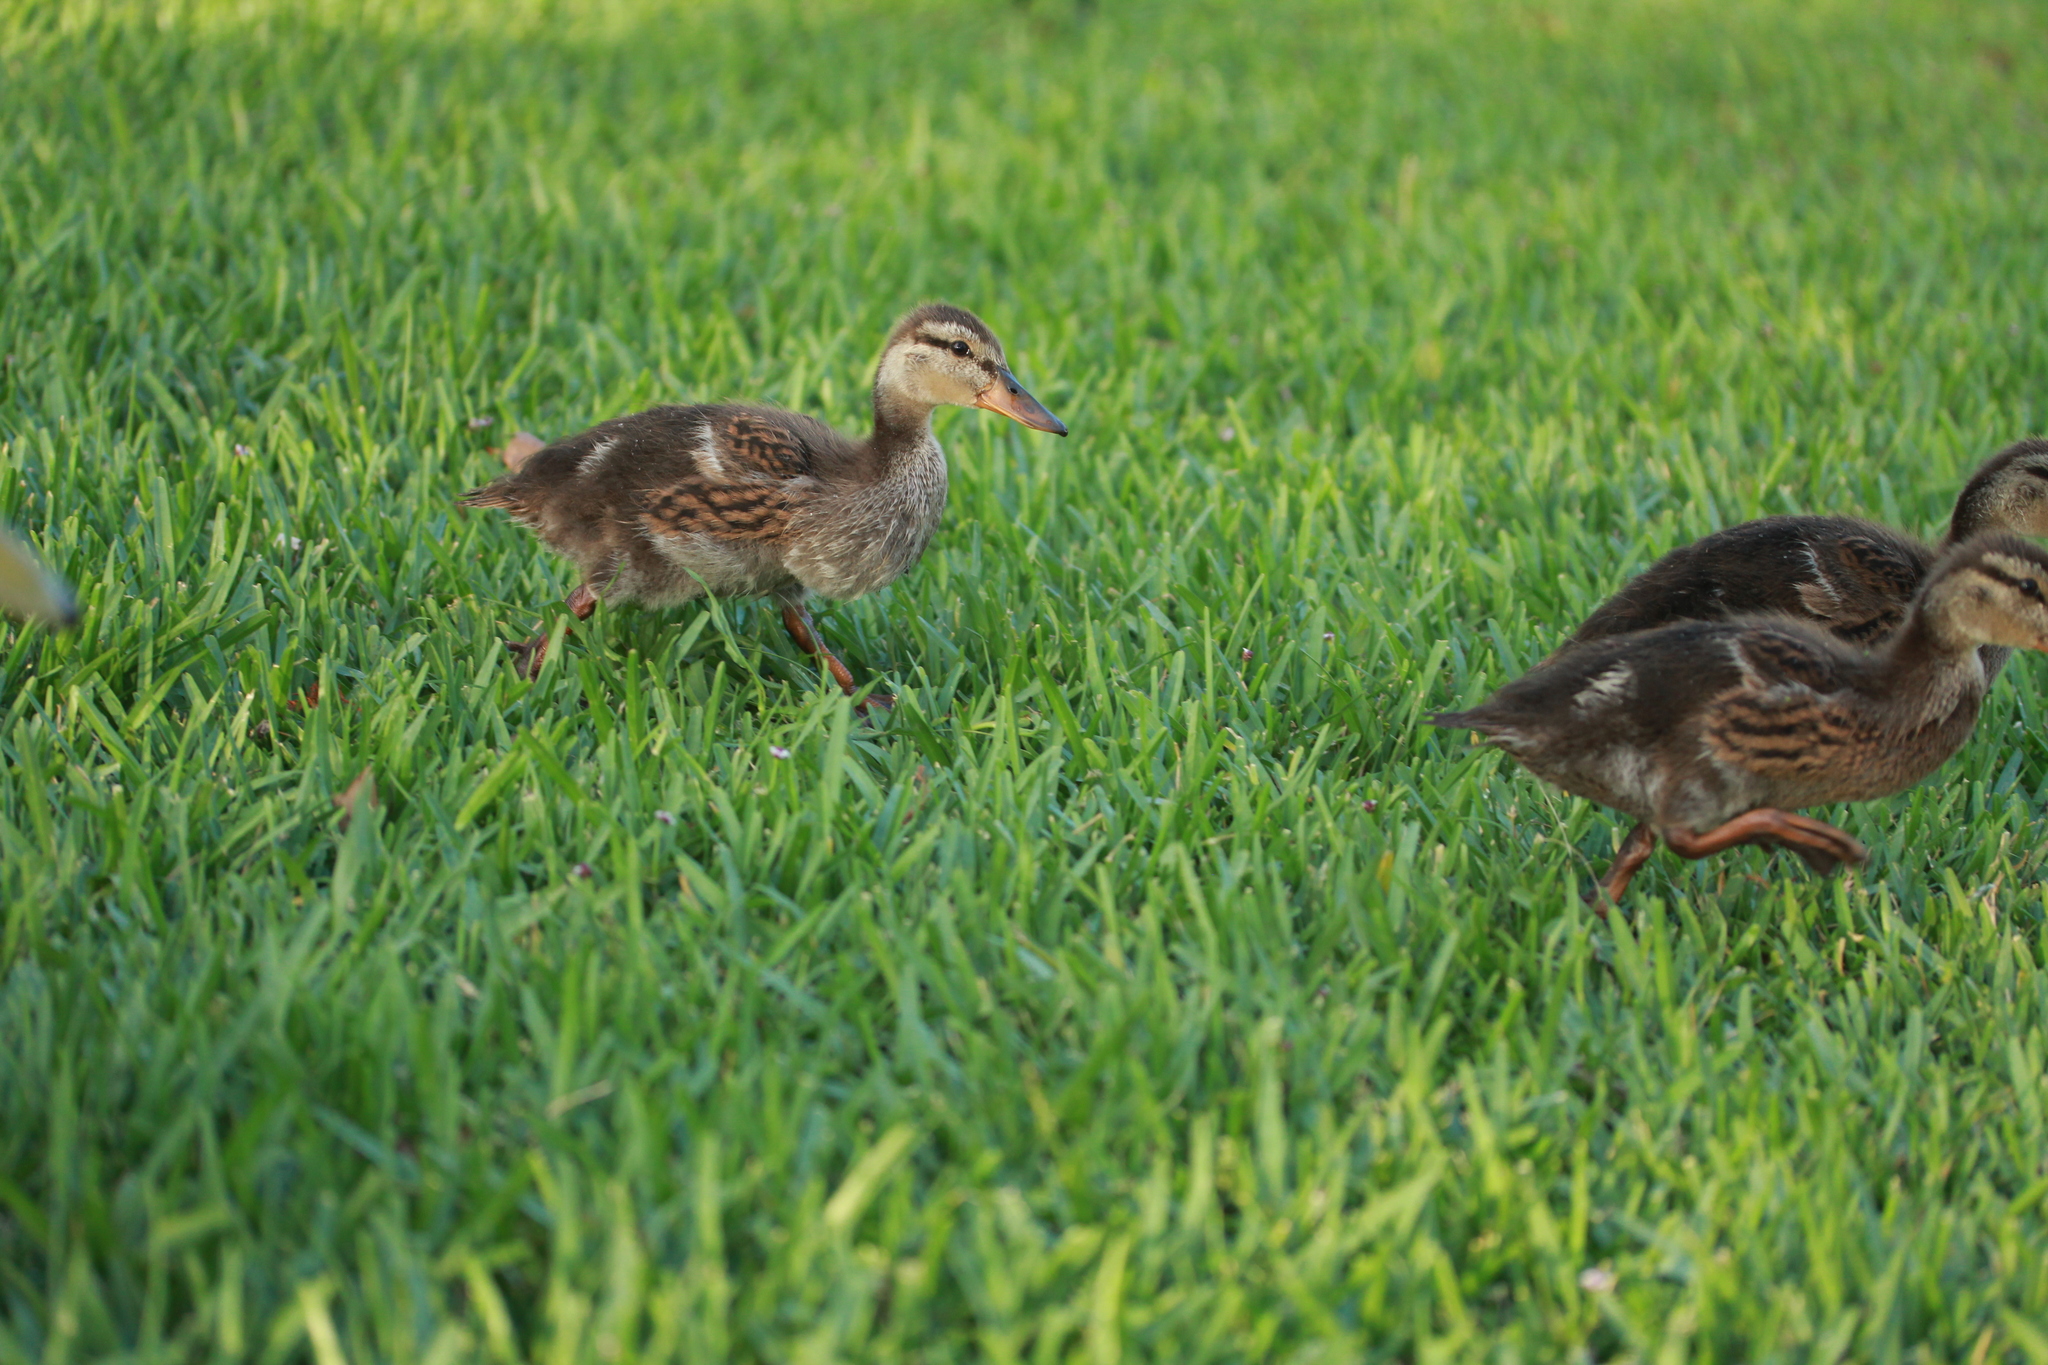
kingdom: Animalia
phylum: Chordata
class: Aves
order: Anseriformes
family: Anatidae
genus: Anas
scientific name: Anas platyrhynchos
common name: Mallard
